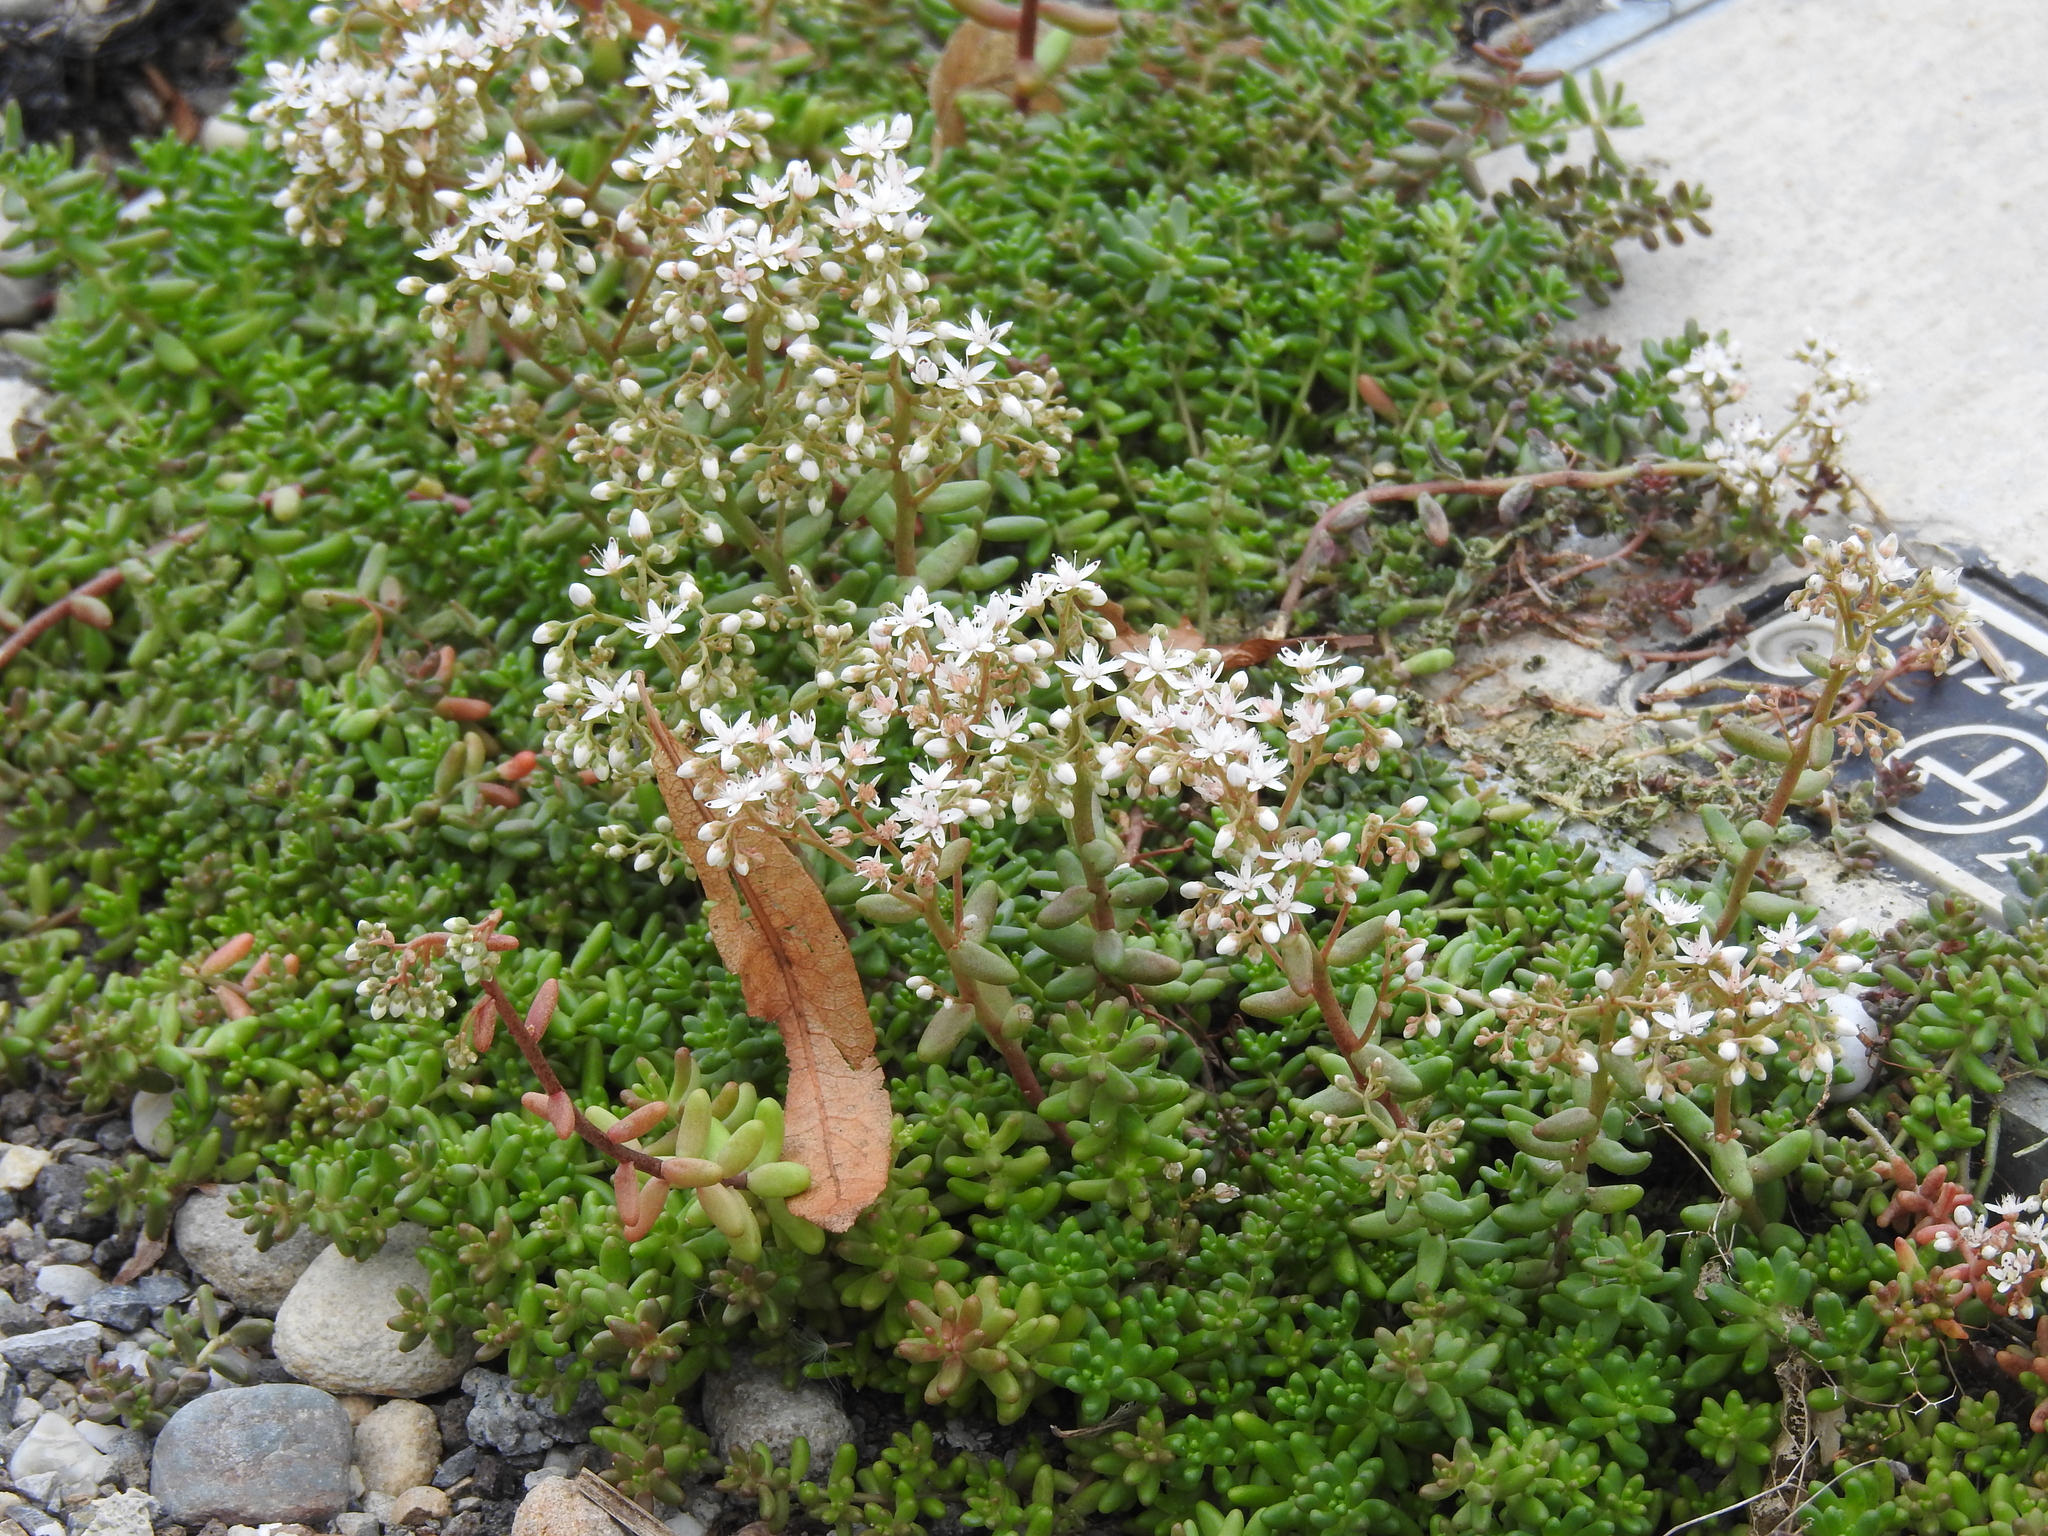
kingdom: Plantae
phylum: Tracheophyta
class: Magnoliopsida
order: Saxifragales
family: Crassulaceae
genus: Sedum
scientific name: Sedum album
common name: White stonecrop
